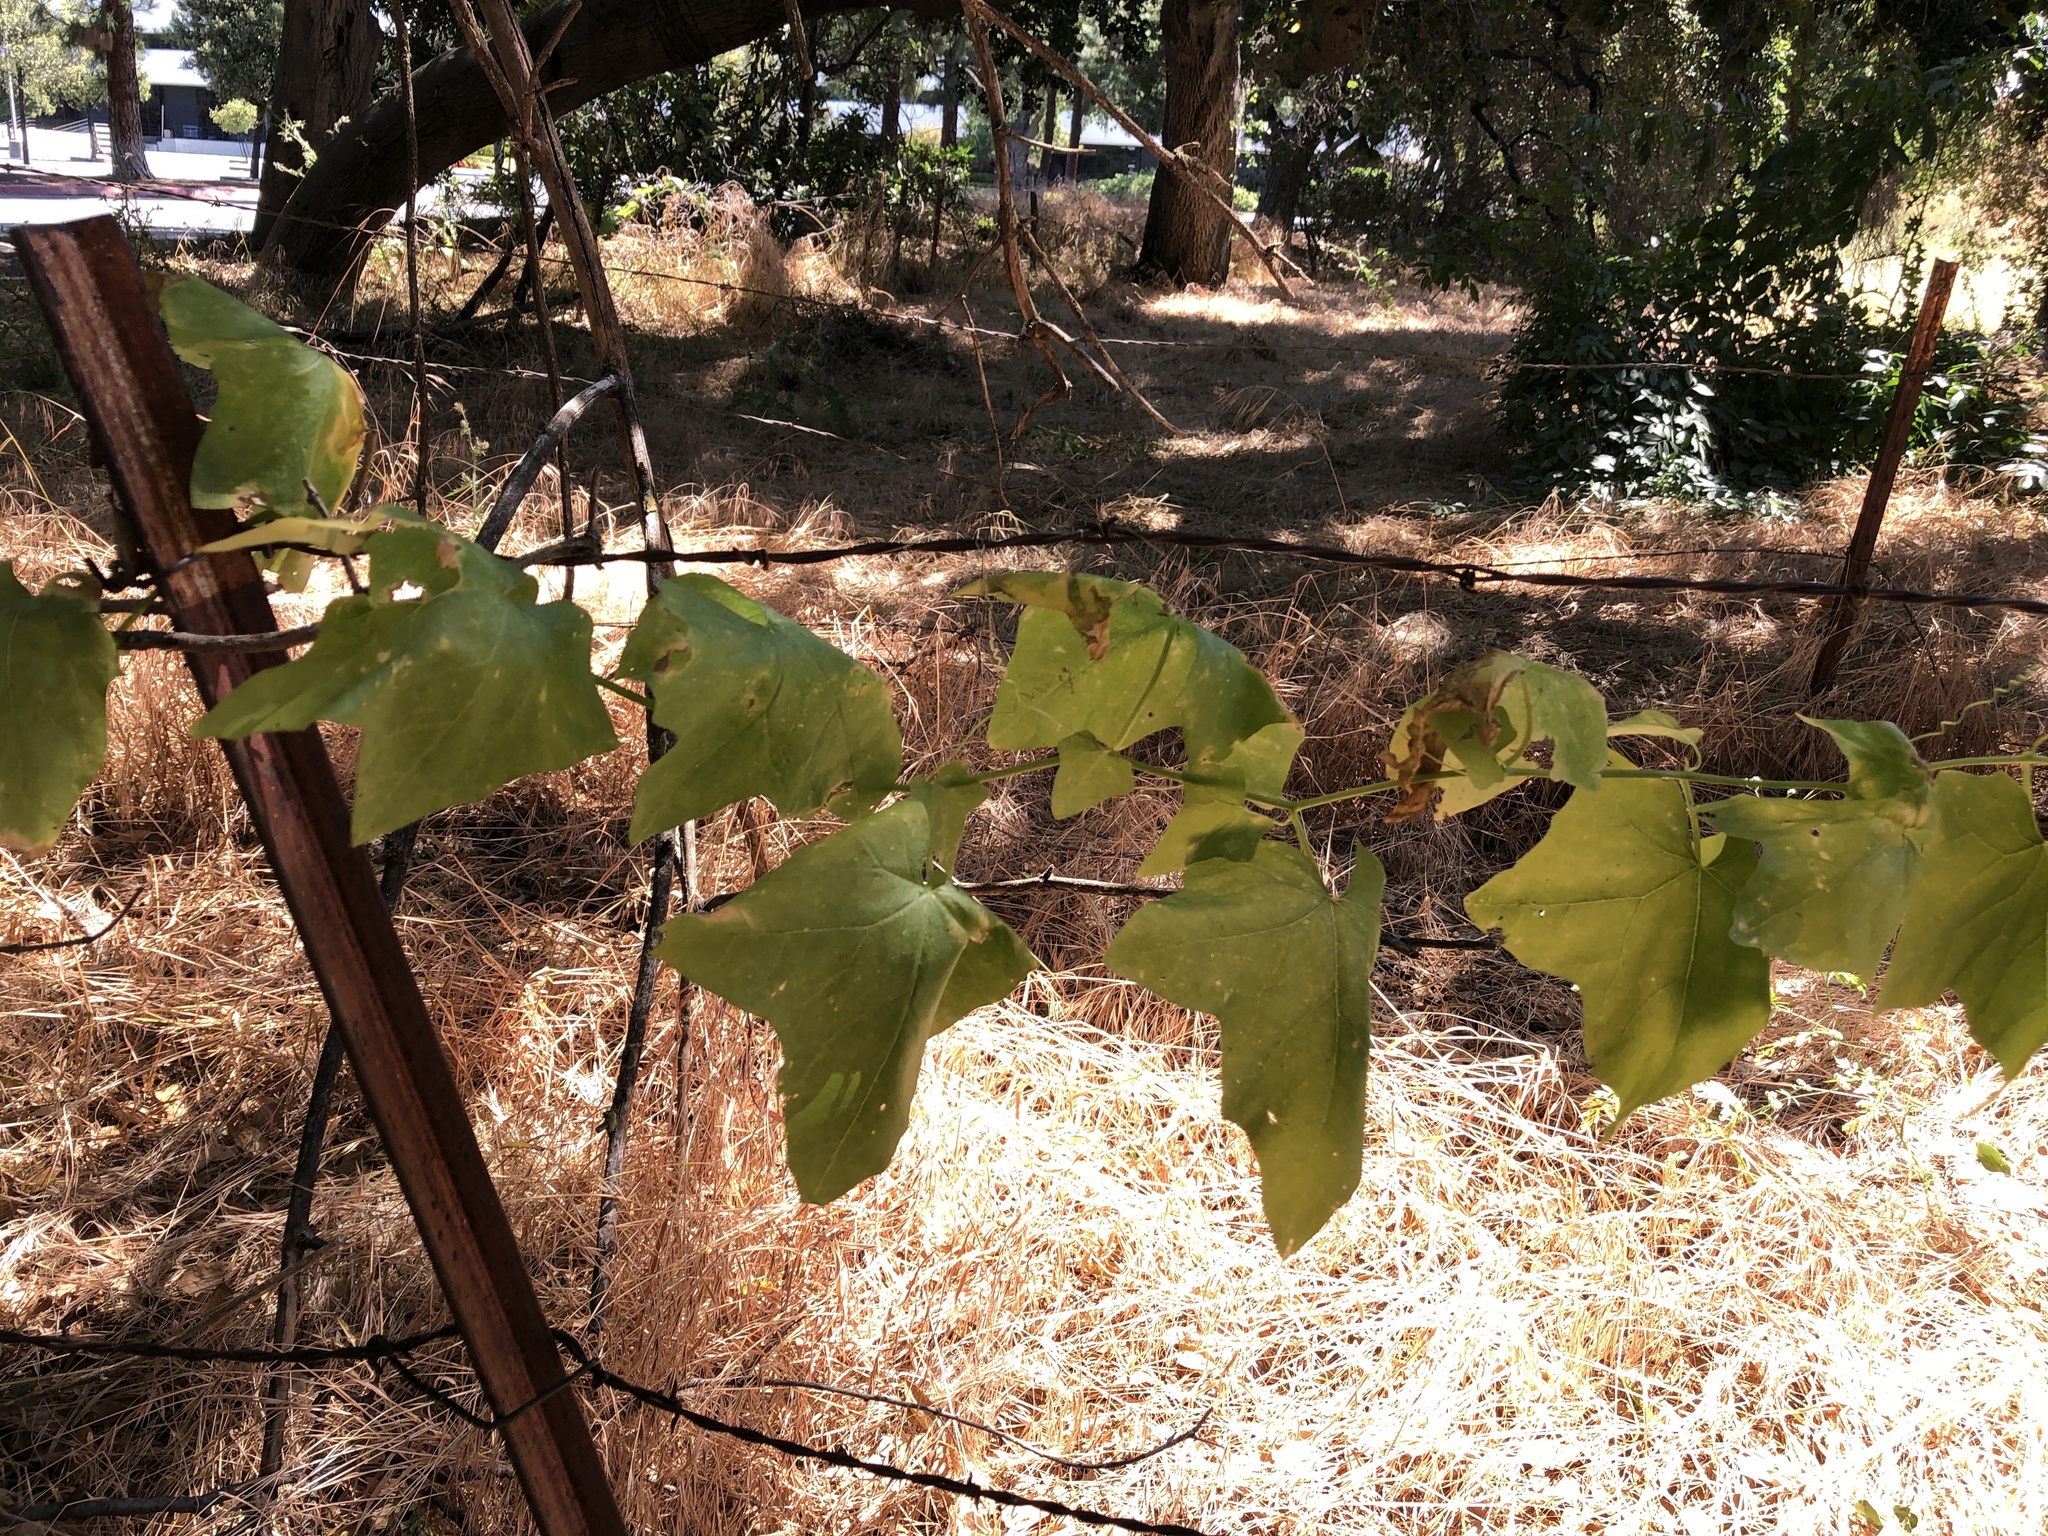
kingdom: Plantae
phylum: Tracheophyta
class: Magnoliopsida
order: Cucurbitales
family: Cucurbitaceae
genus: Marah
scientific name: Marah fabacea
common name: California manroot
